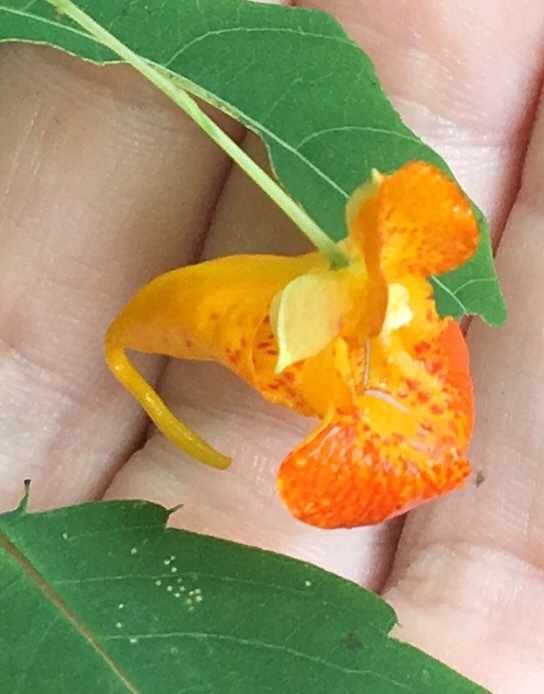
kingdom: Plantae
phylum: Tracheophyta
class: Magnoliopsida
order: Ericales
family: Balsaminaceae
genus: Impatiens
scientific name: Impatiens capensis
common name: Orange balsam
